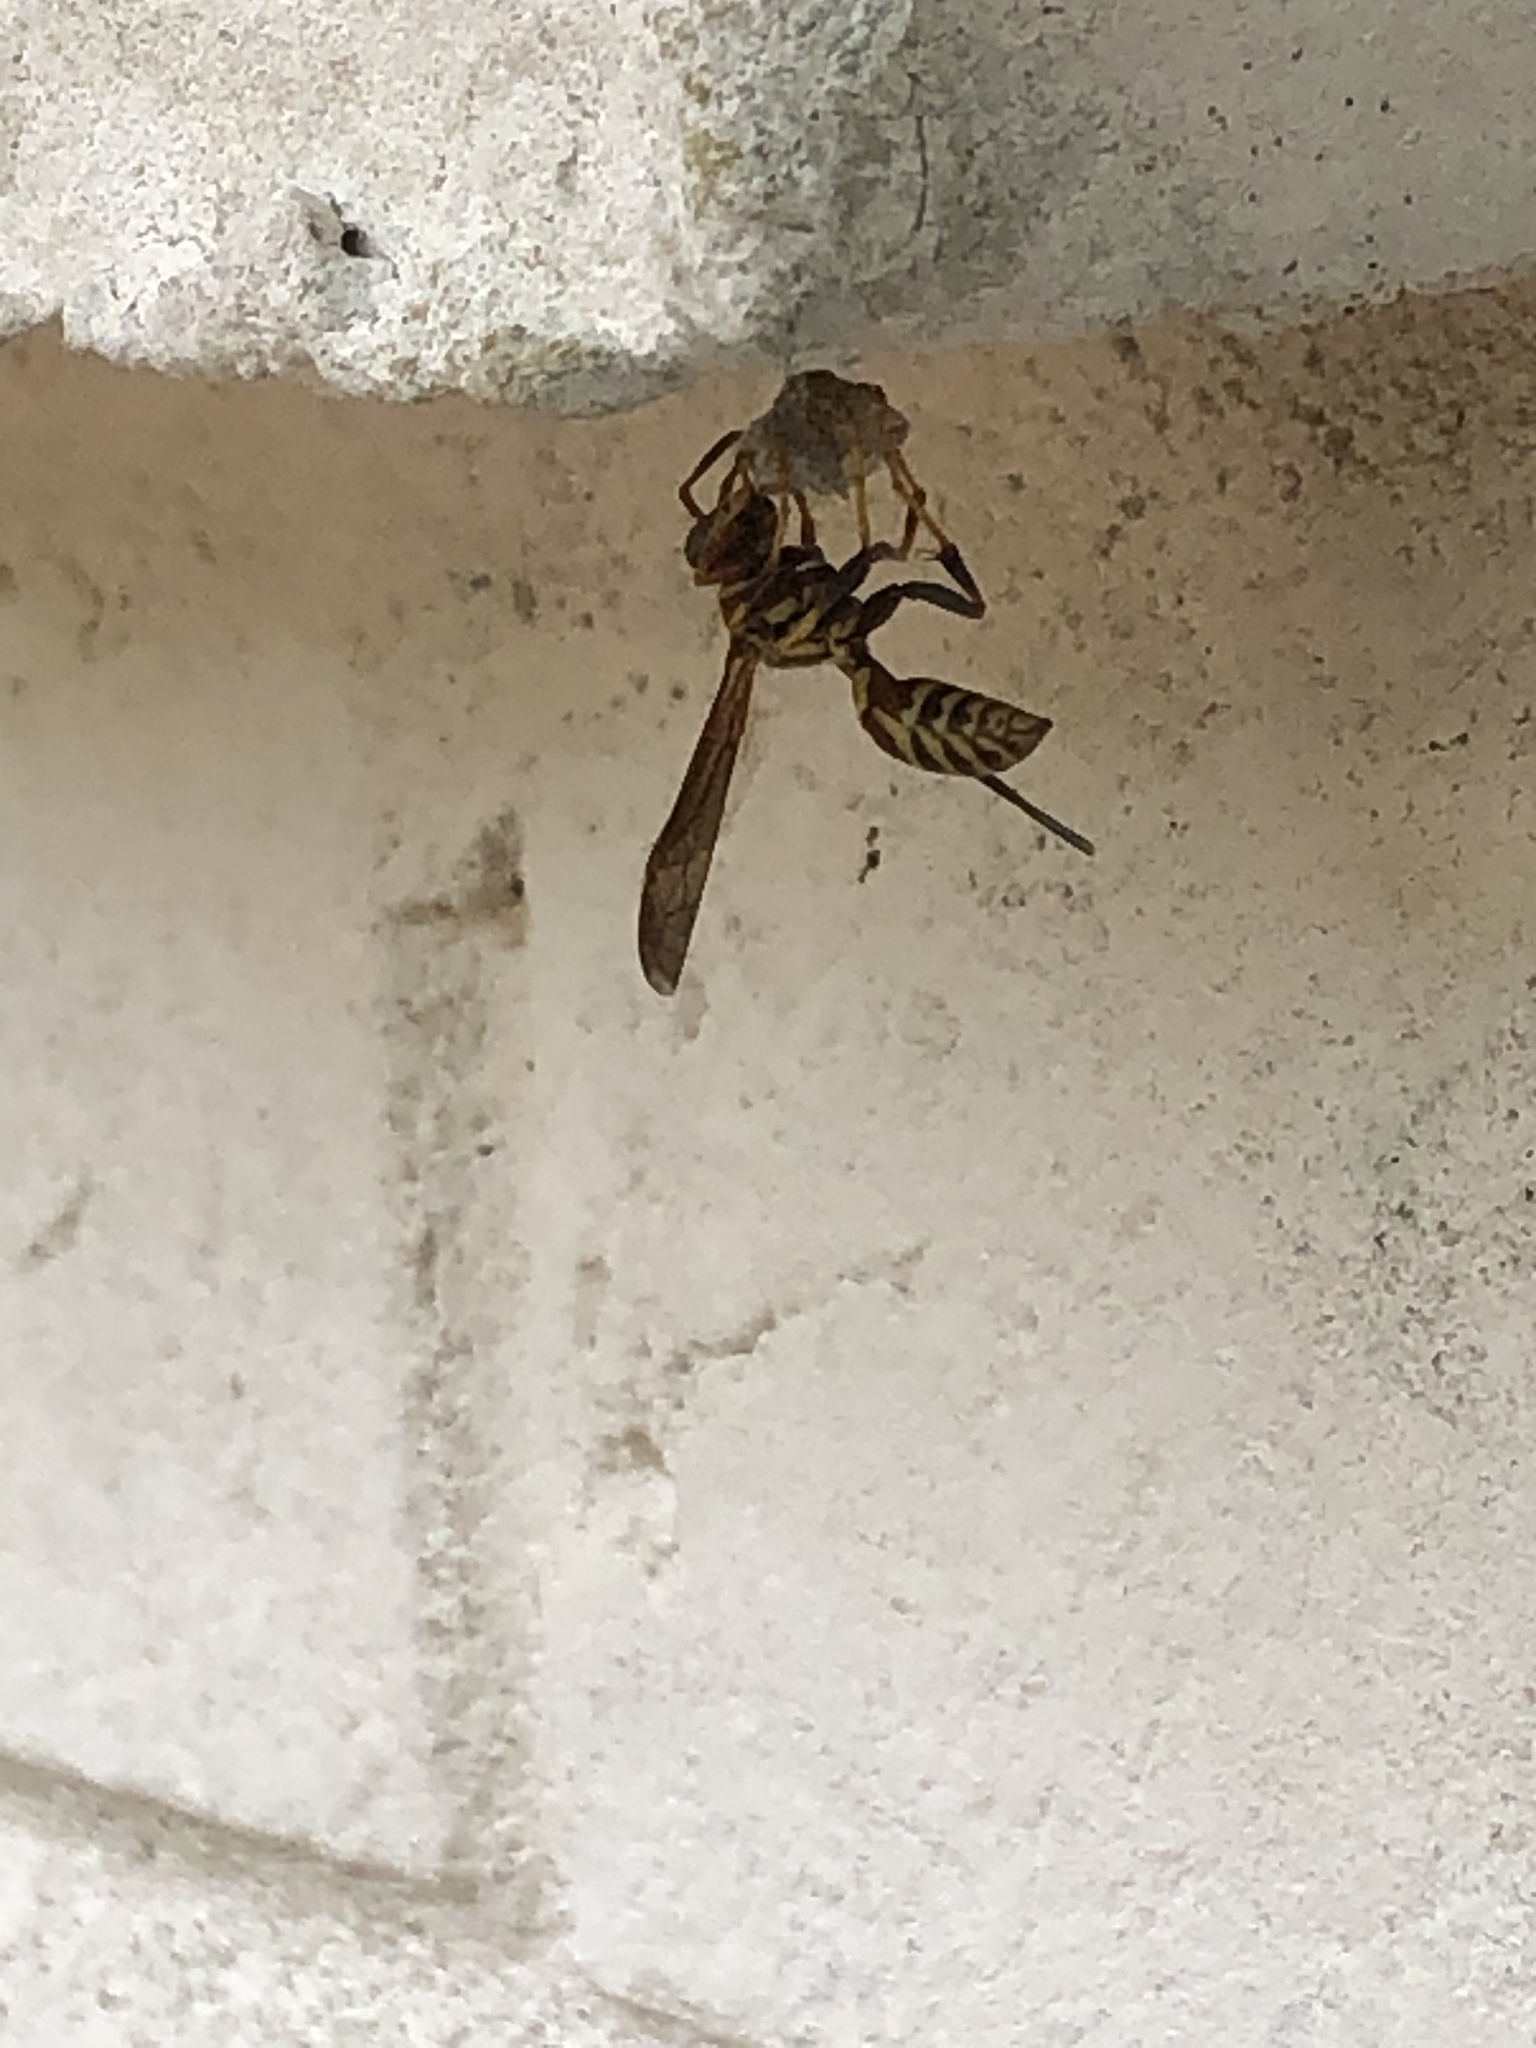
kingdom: Animalia
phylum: Arthropoda
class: Insecta
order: Hymenoptera
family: Eumenidae
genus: Polistes
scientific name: Polistes exclamans
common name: Paper wasp
